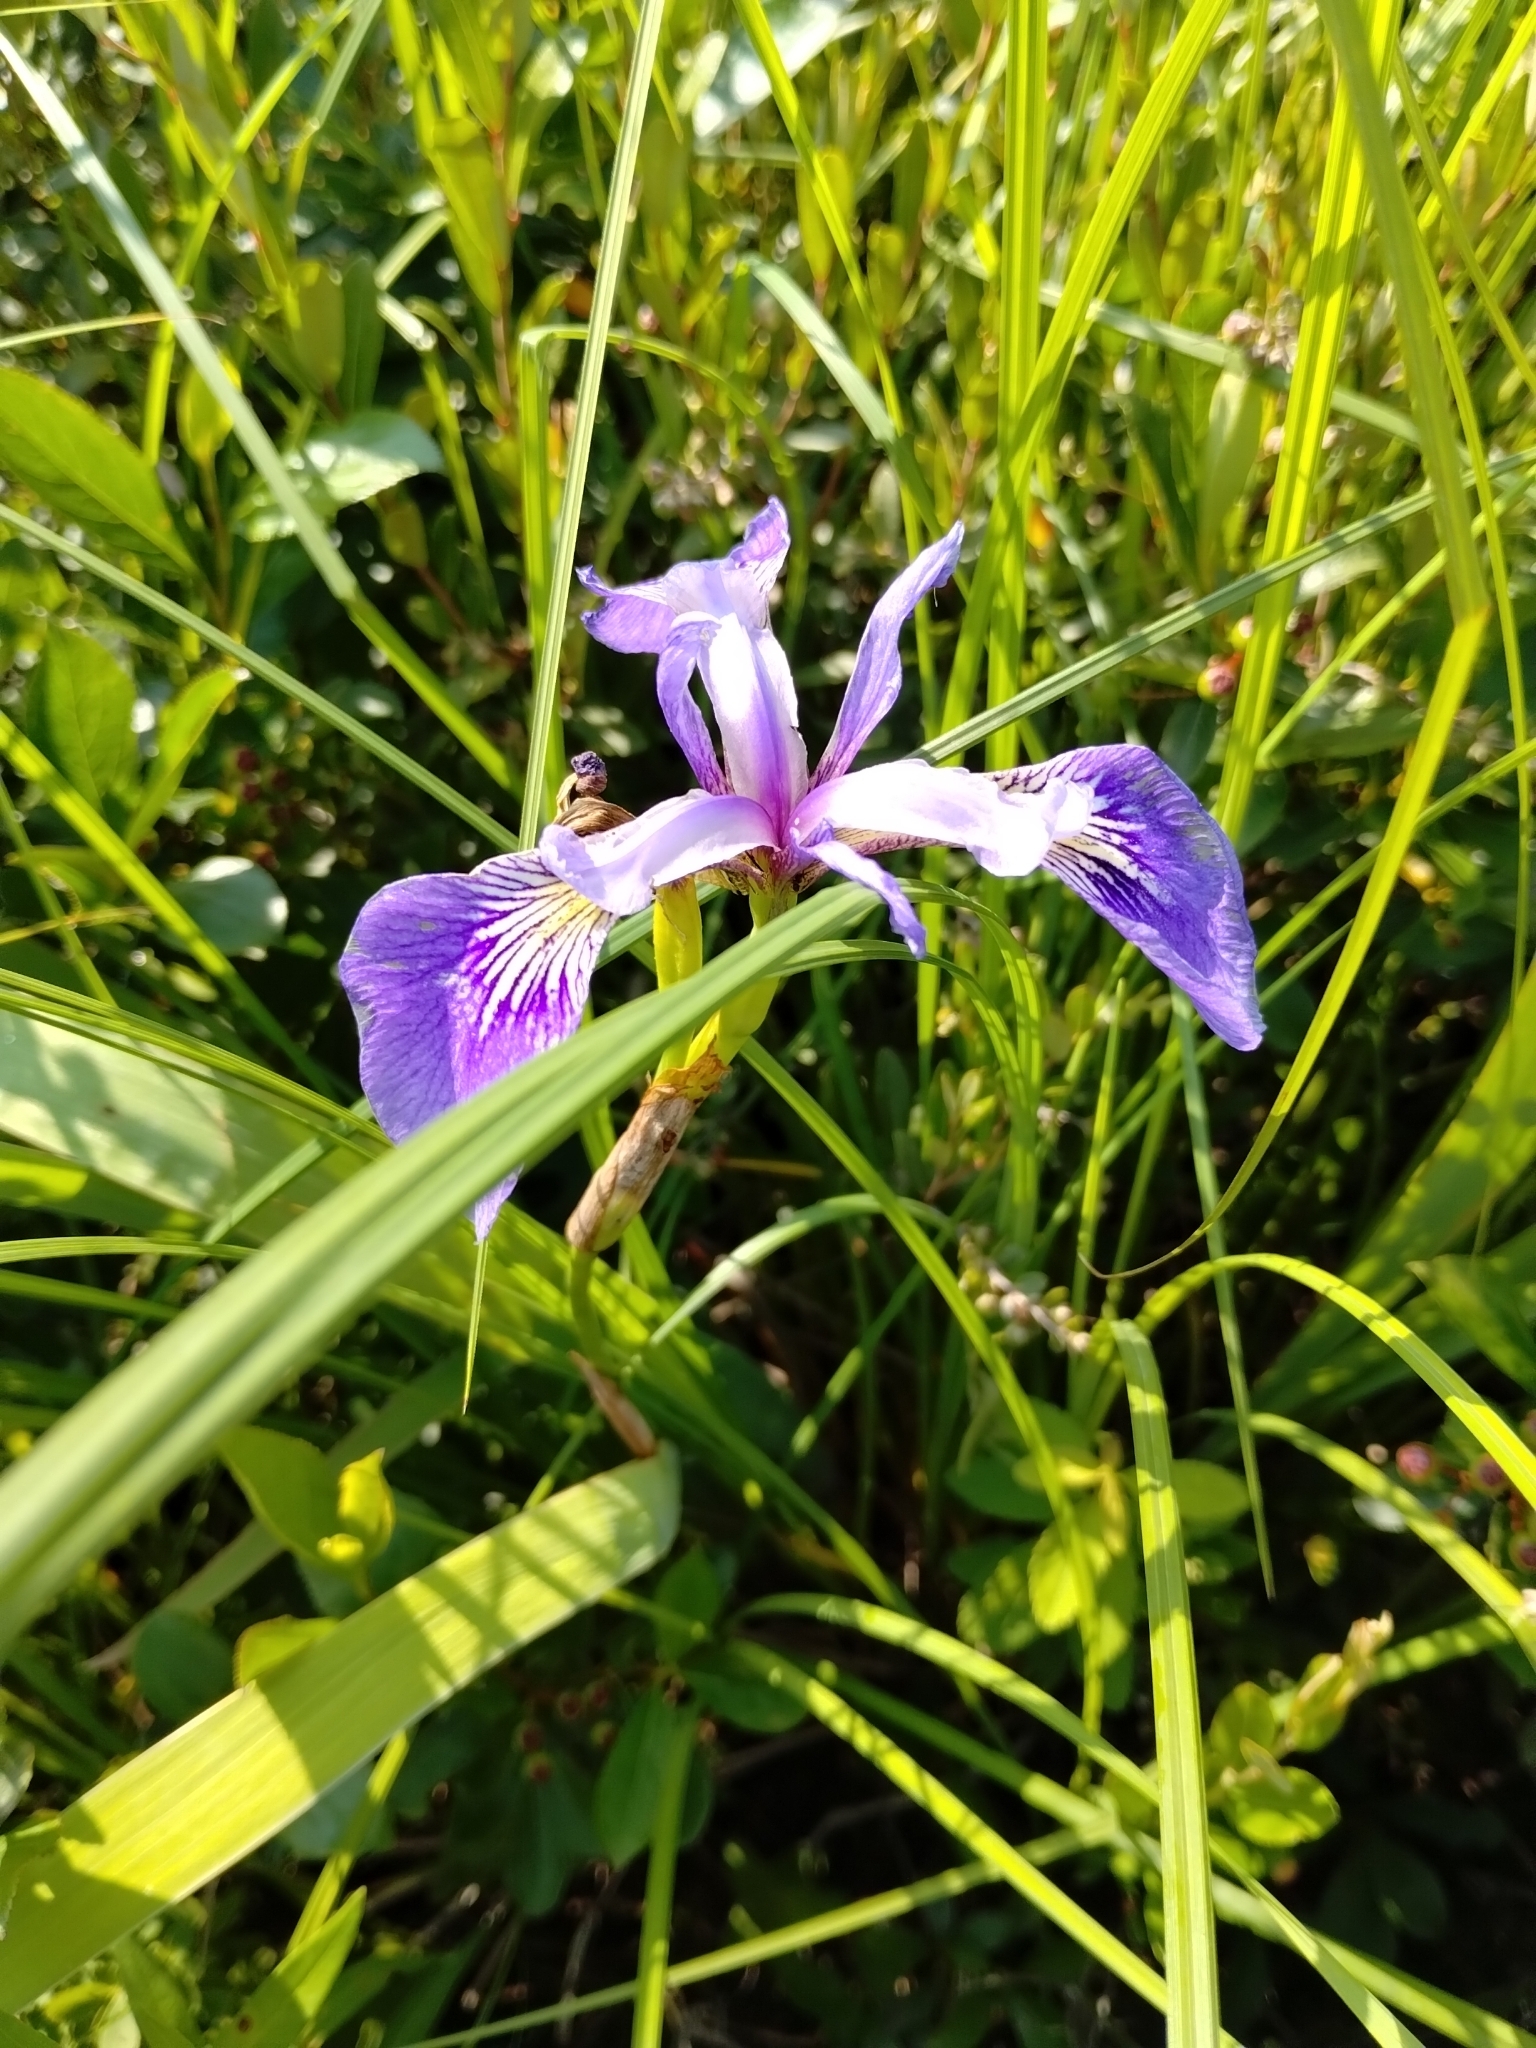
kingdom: Plantae
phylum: Tracheophyta
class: Liliopsida
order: Asparagales
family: Iridaceae
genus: Iris
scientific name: Iris versicolor
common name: Purple iris
